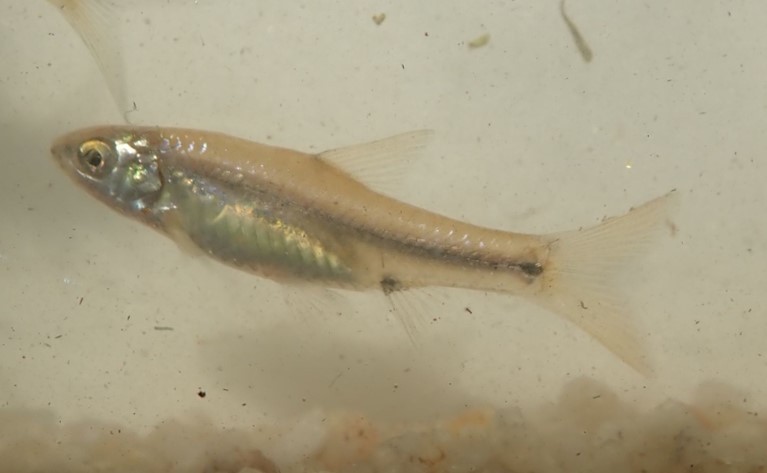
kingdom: Animalia
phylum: Chordata
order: Cypriniformes
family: Cyprinidae
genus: Enteromius
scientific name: Enteromius viviparus
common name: Bowstripe barb
